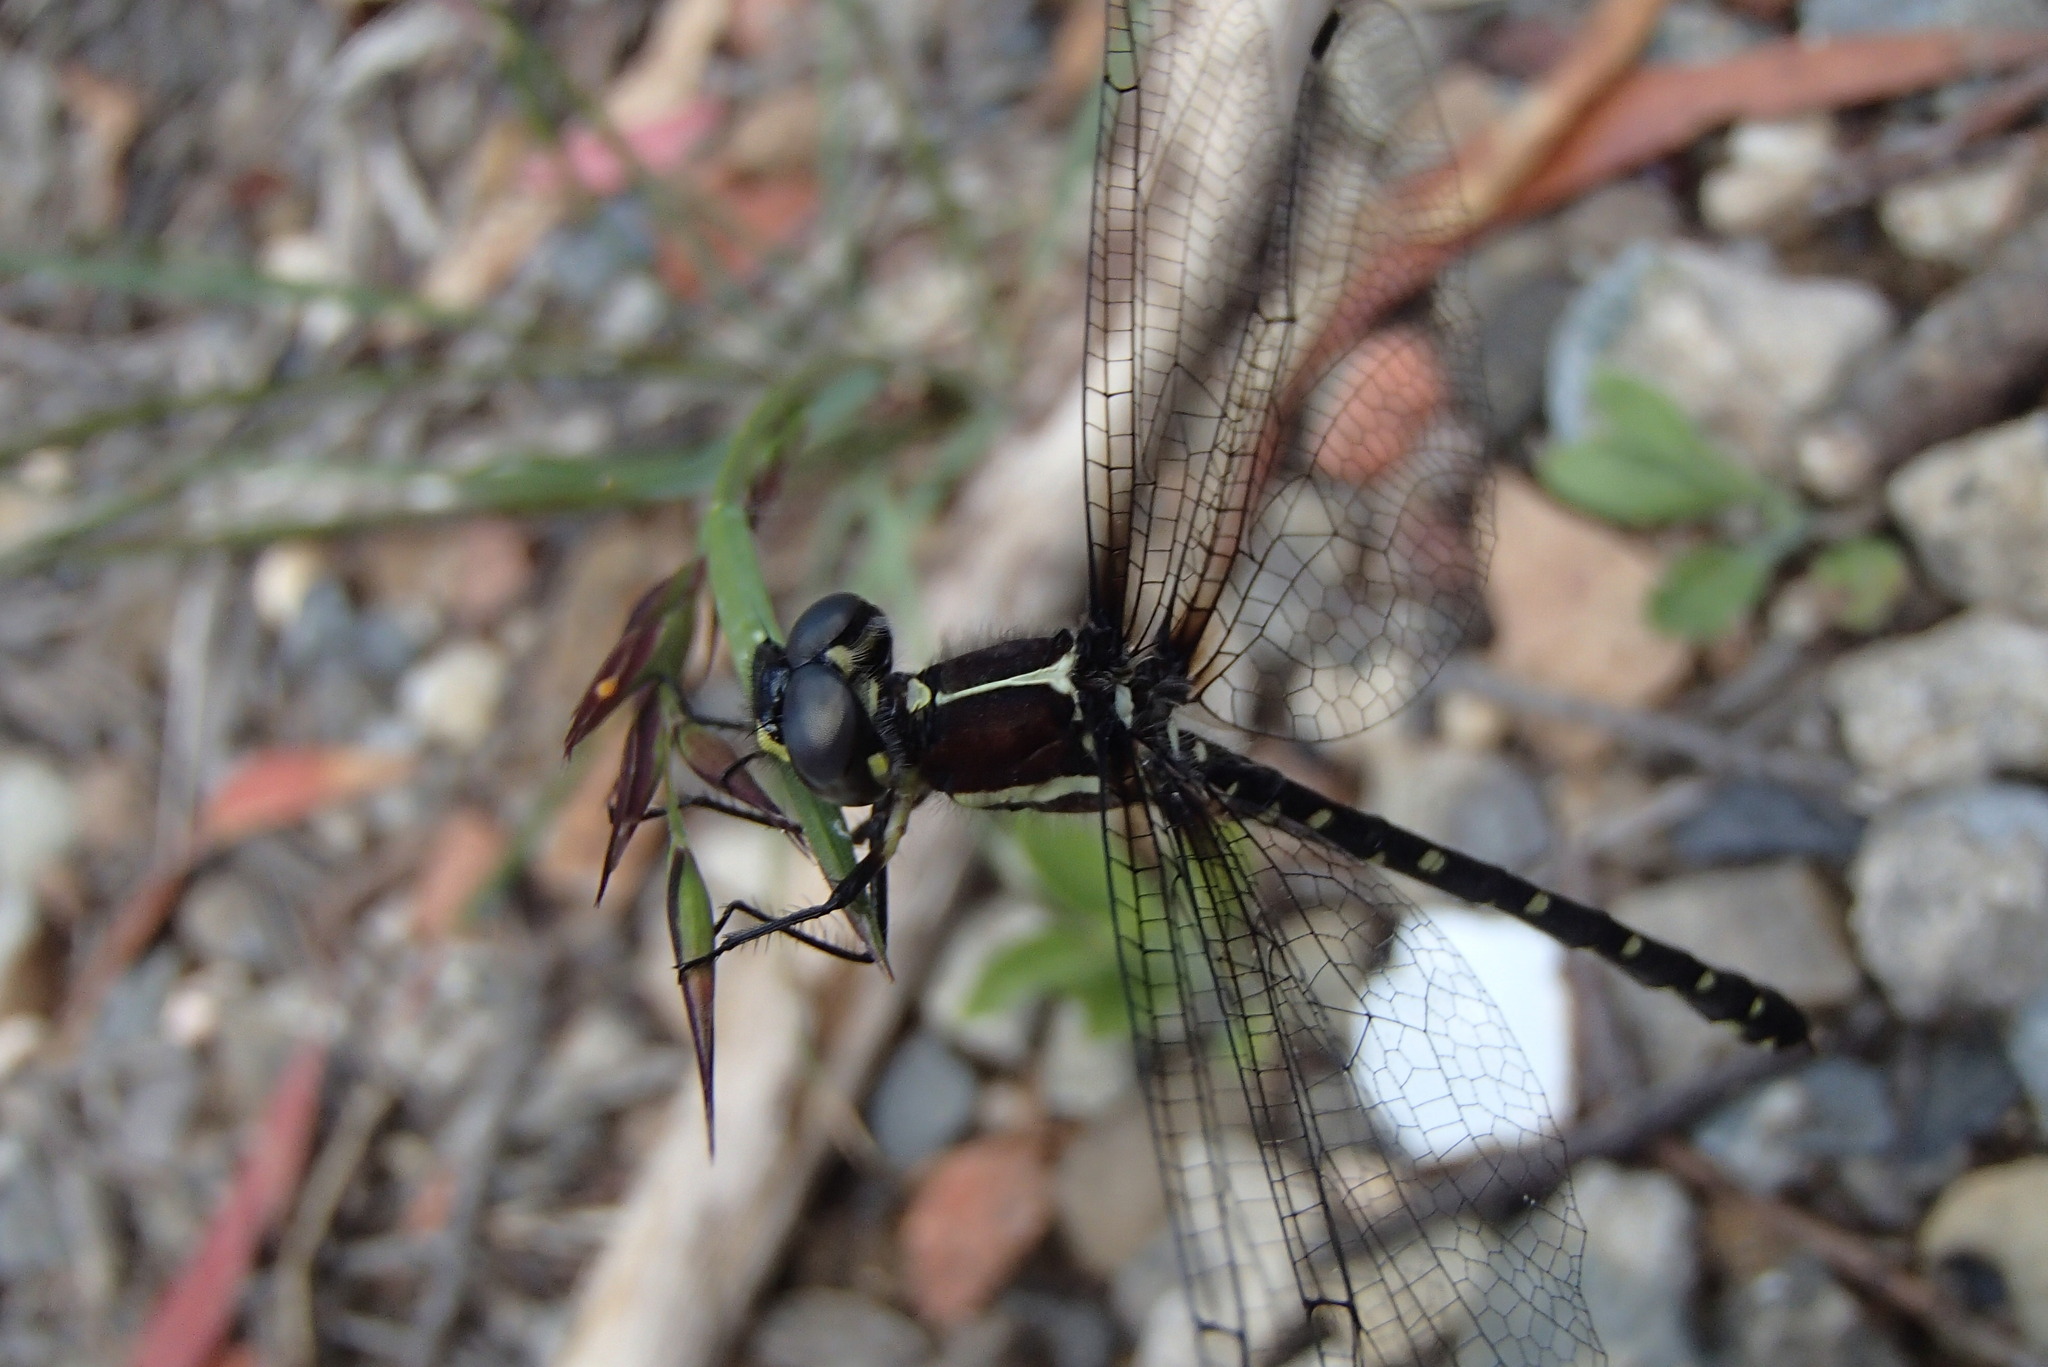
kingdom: Animalia
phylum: Arthropoda
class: Insecta
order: Odonata
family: Synthemistidae
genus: Eusynthemis
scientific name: Eusynthemis tillyardi
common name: Mountain tigertail
